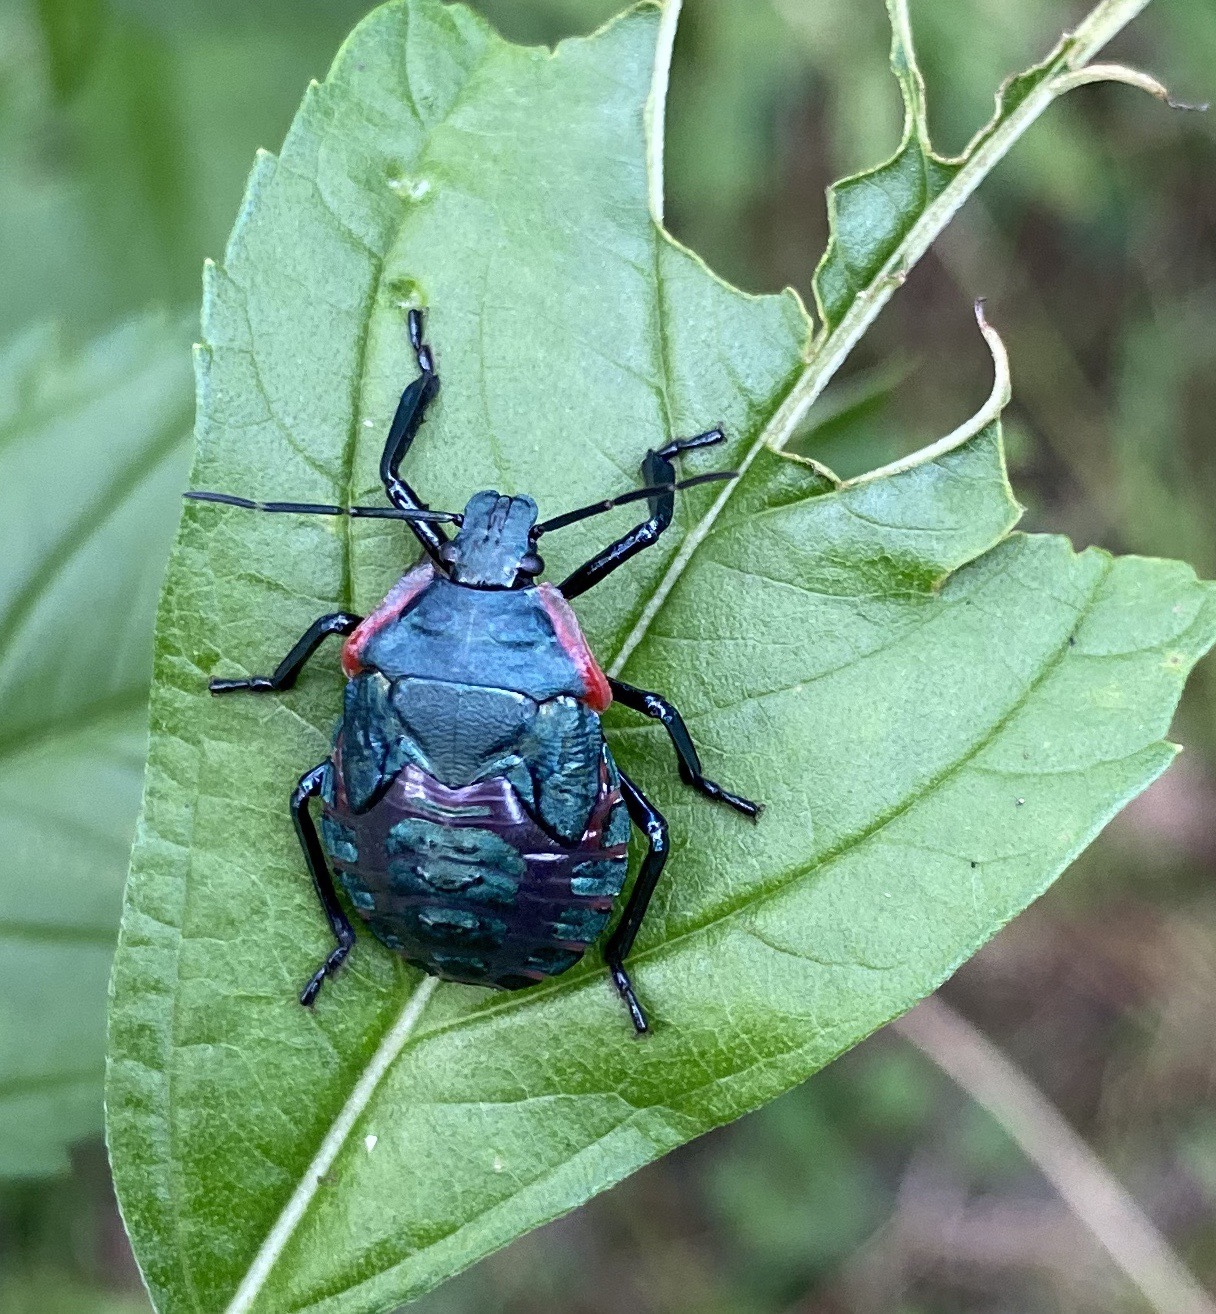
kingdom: Animalia
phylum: Arthropoda
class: Insecta
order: Hemiptera
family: Pentatomidae
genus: Alcaeorrhynchus
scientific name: Alcaeorrhynchus grandis
